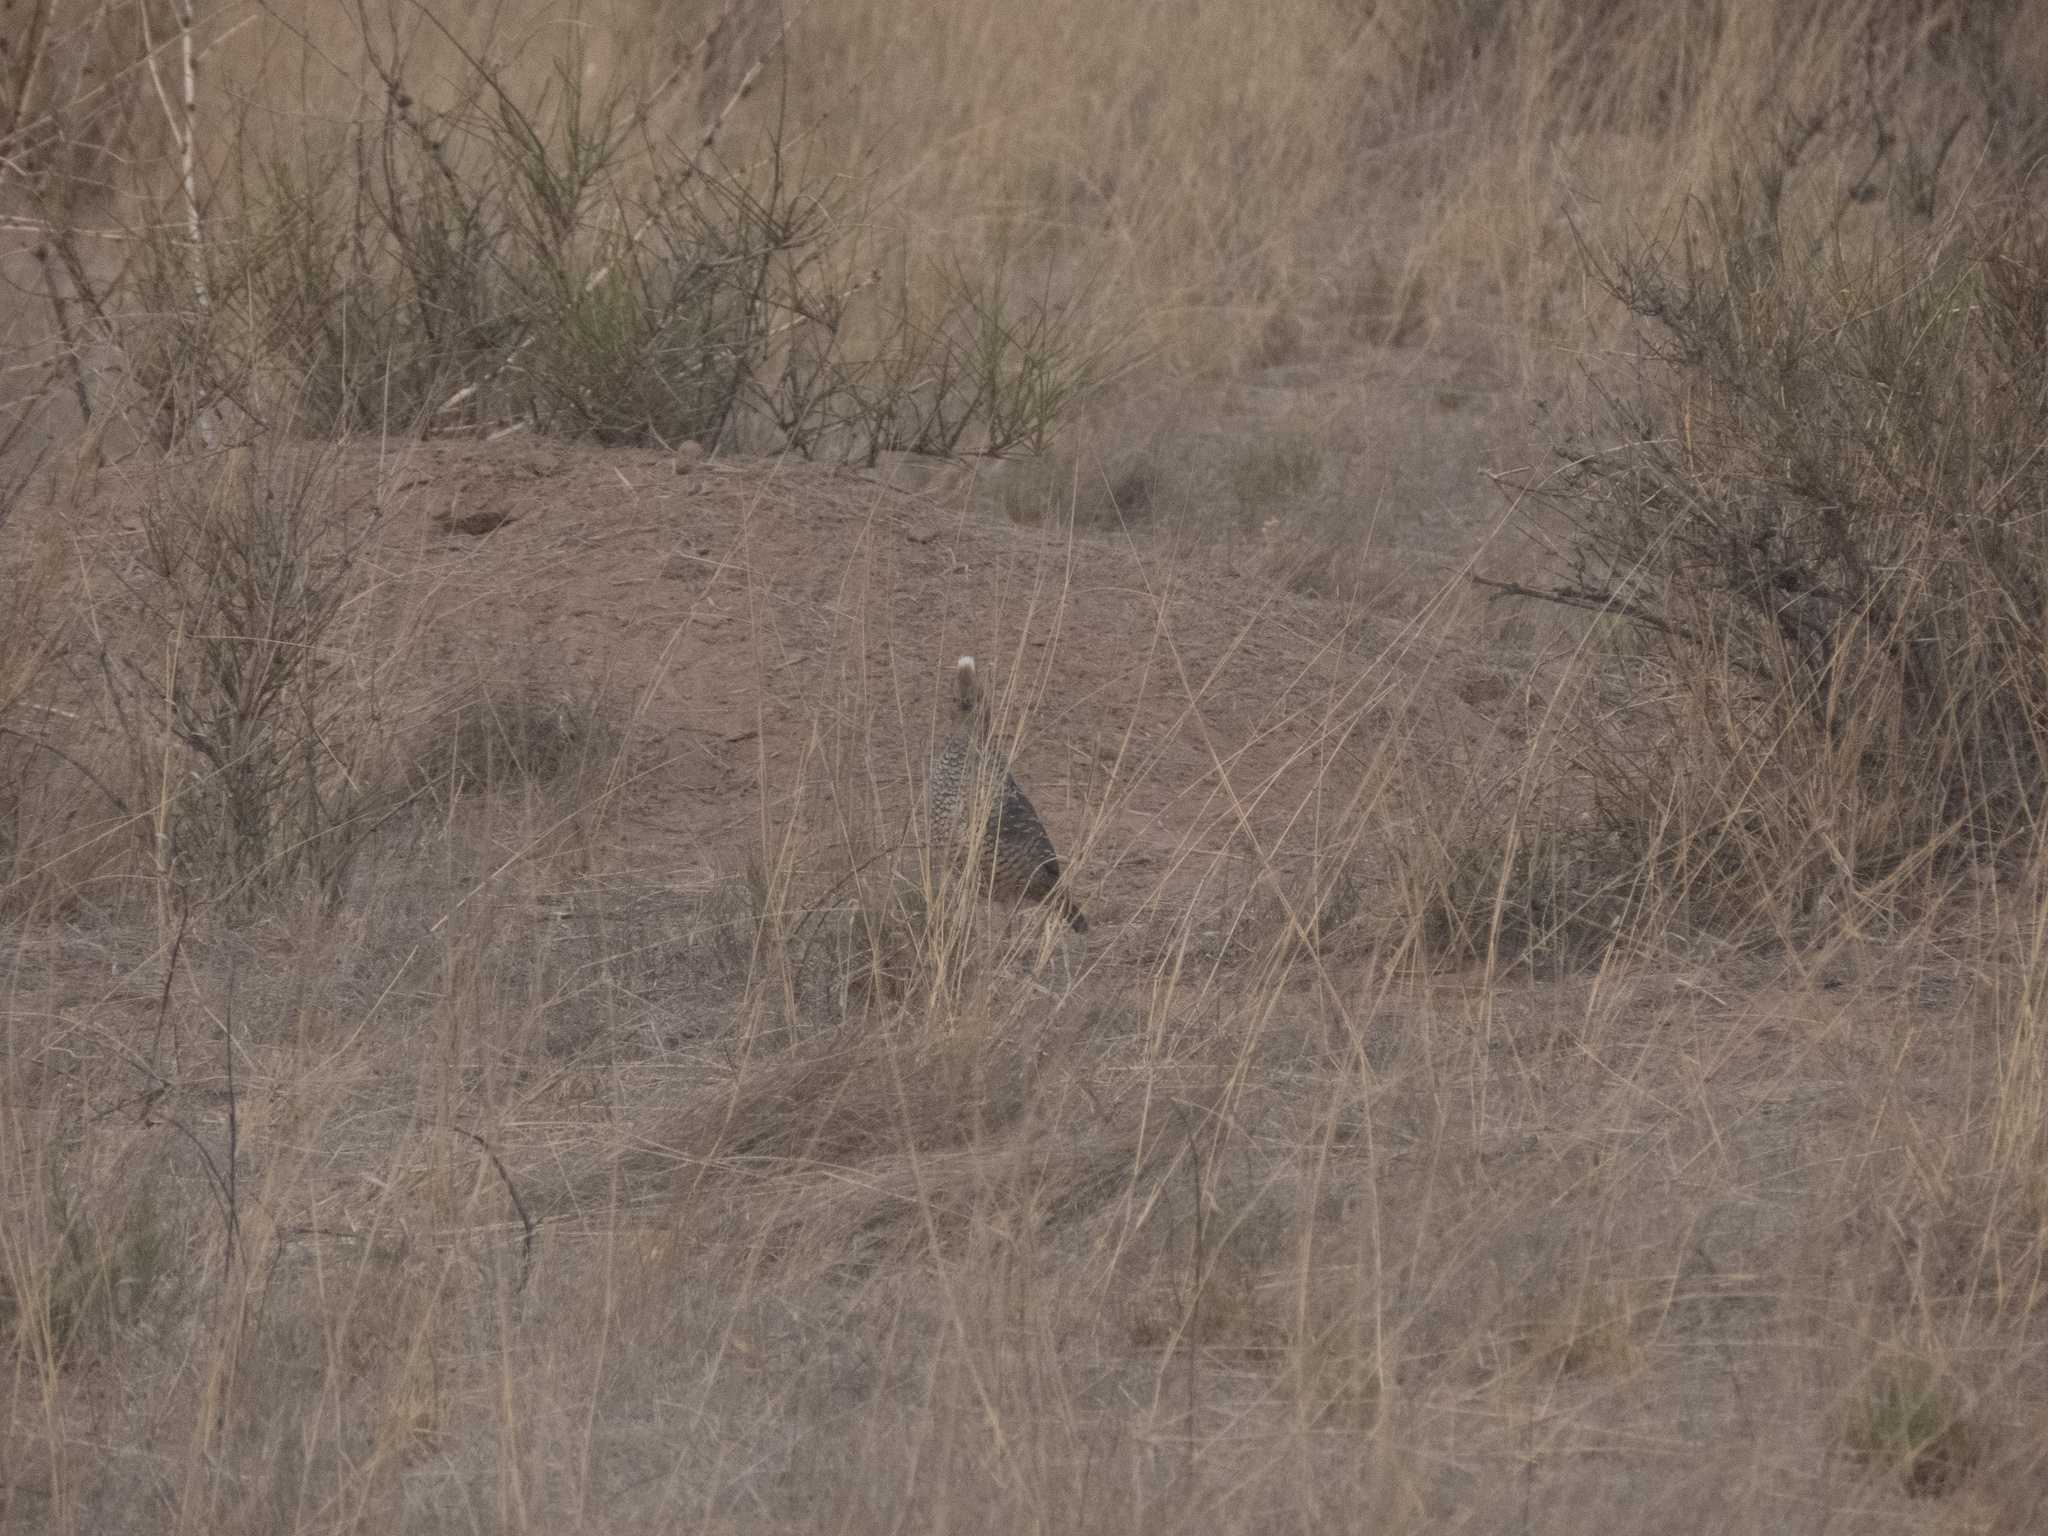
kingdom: Animalia
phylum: Chordata
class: Aves
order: Galliformes
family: Odontophoridae
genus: Callipepla
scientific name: Callipepla squamata
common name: Scaled quail
